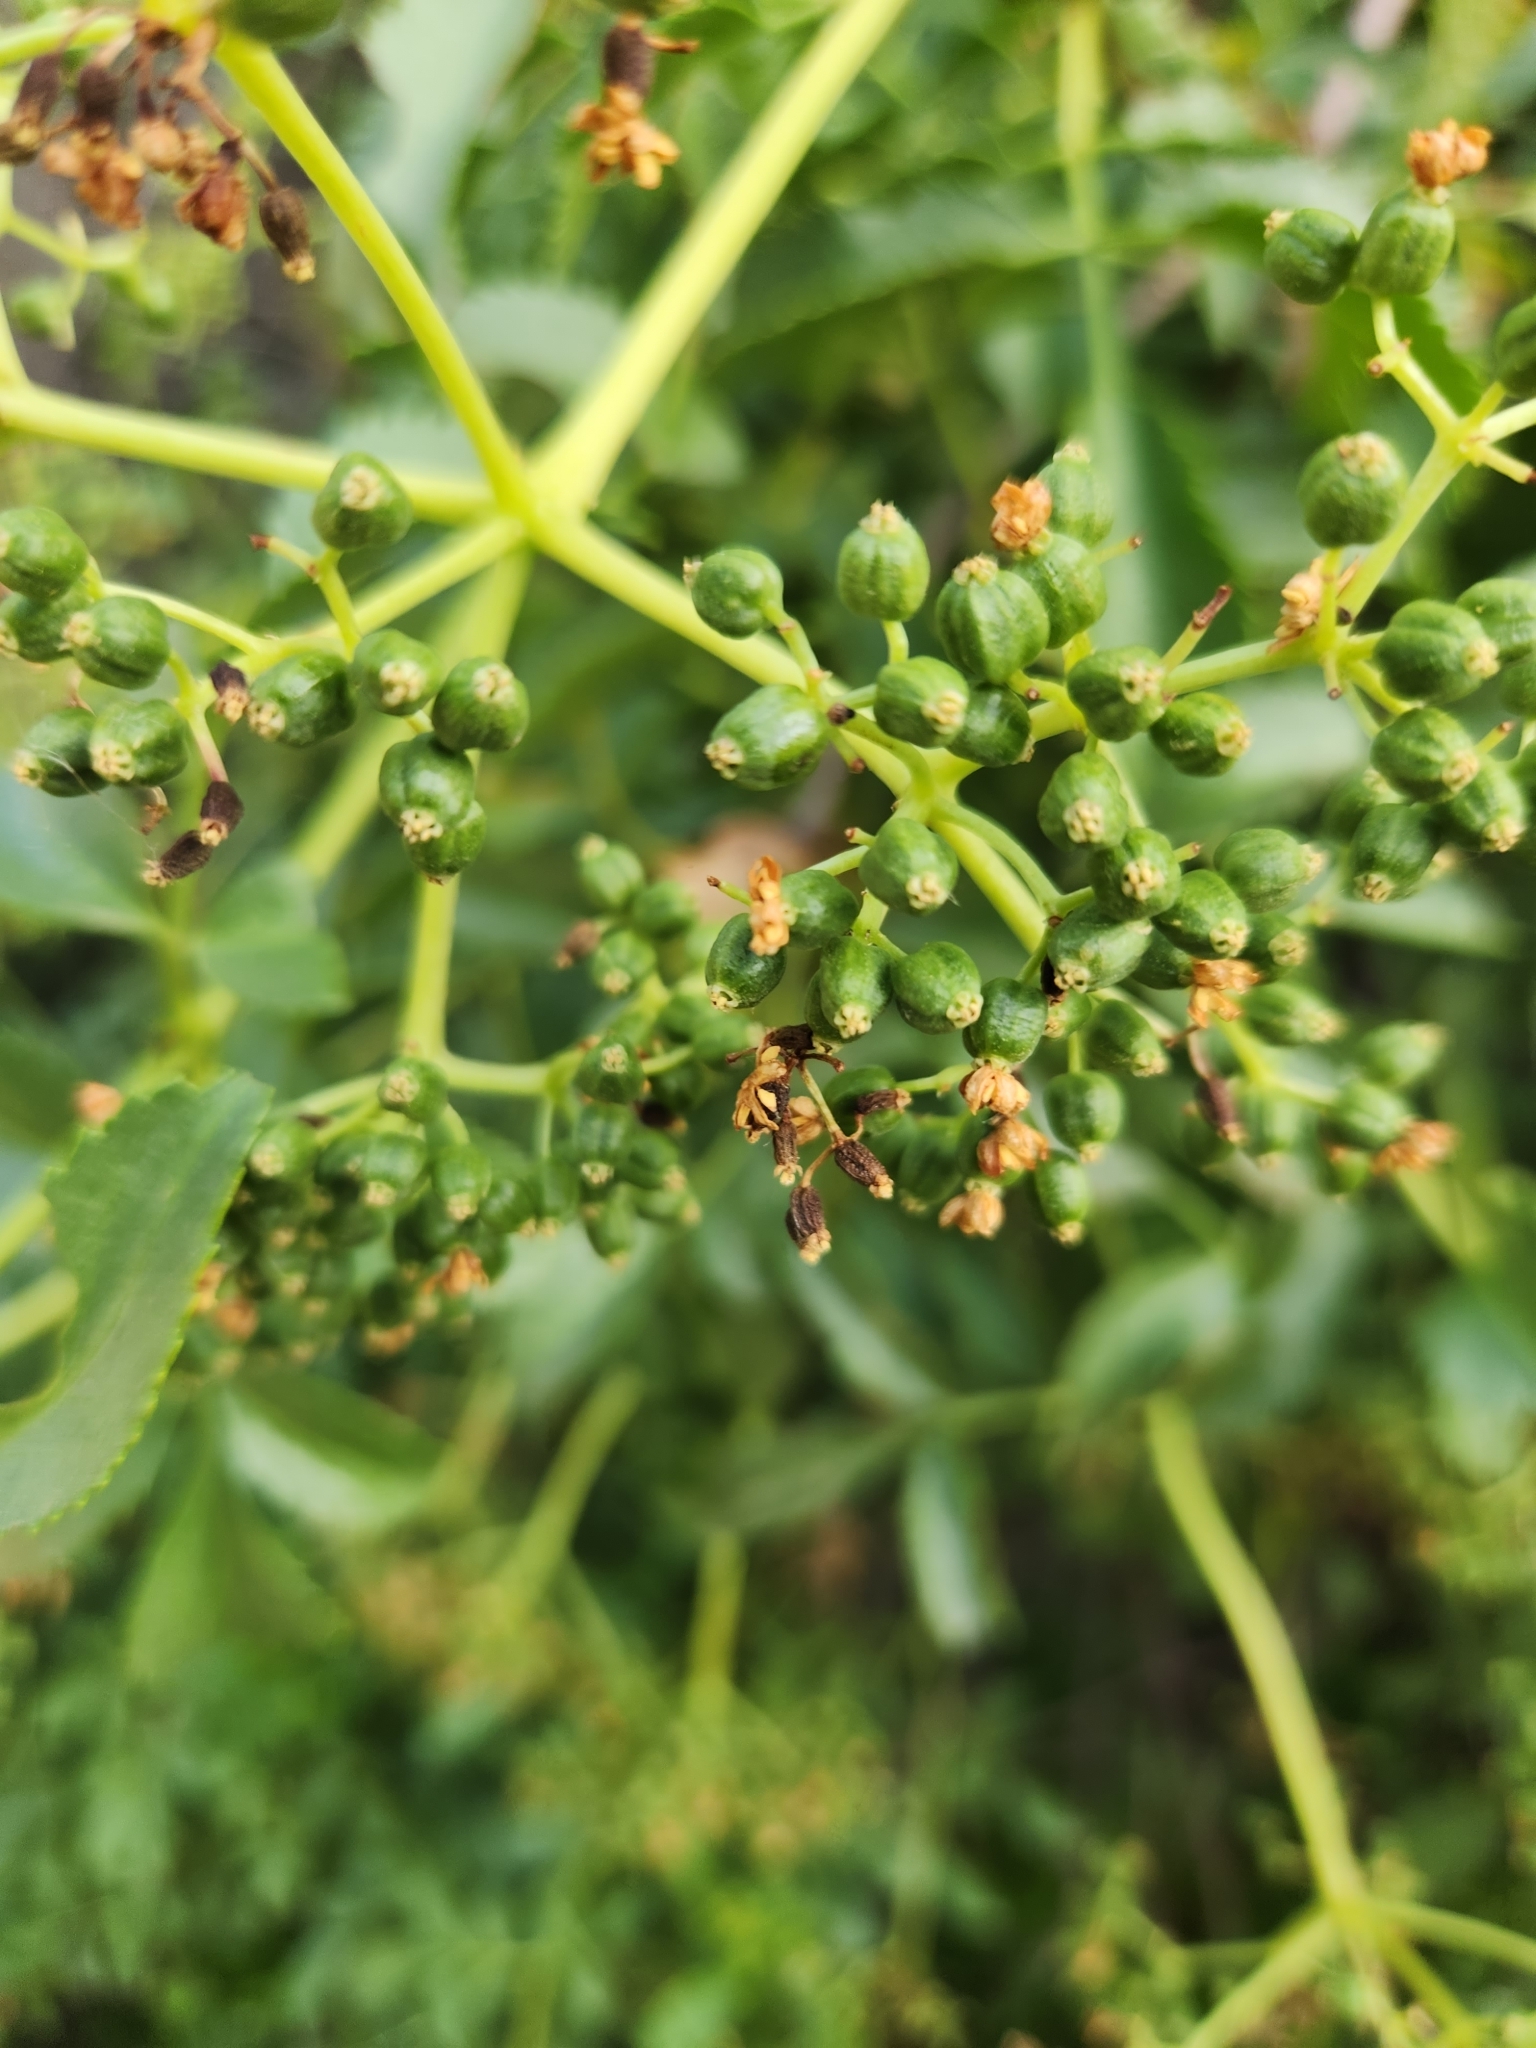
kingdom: Plantae
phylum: Tracheophyta
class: Magnoliopsida
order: Dipsacales
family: Viburnaceae
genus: Sambucus
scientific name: Sambucus cerulea
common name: Blue elder
